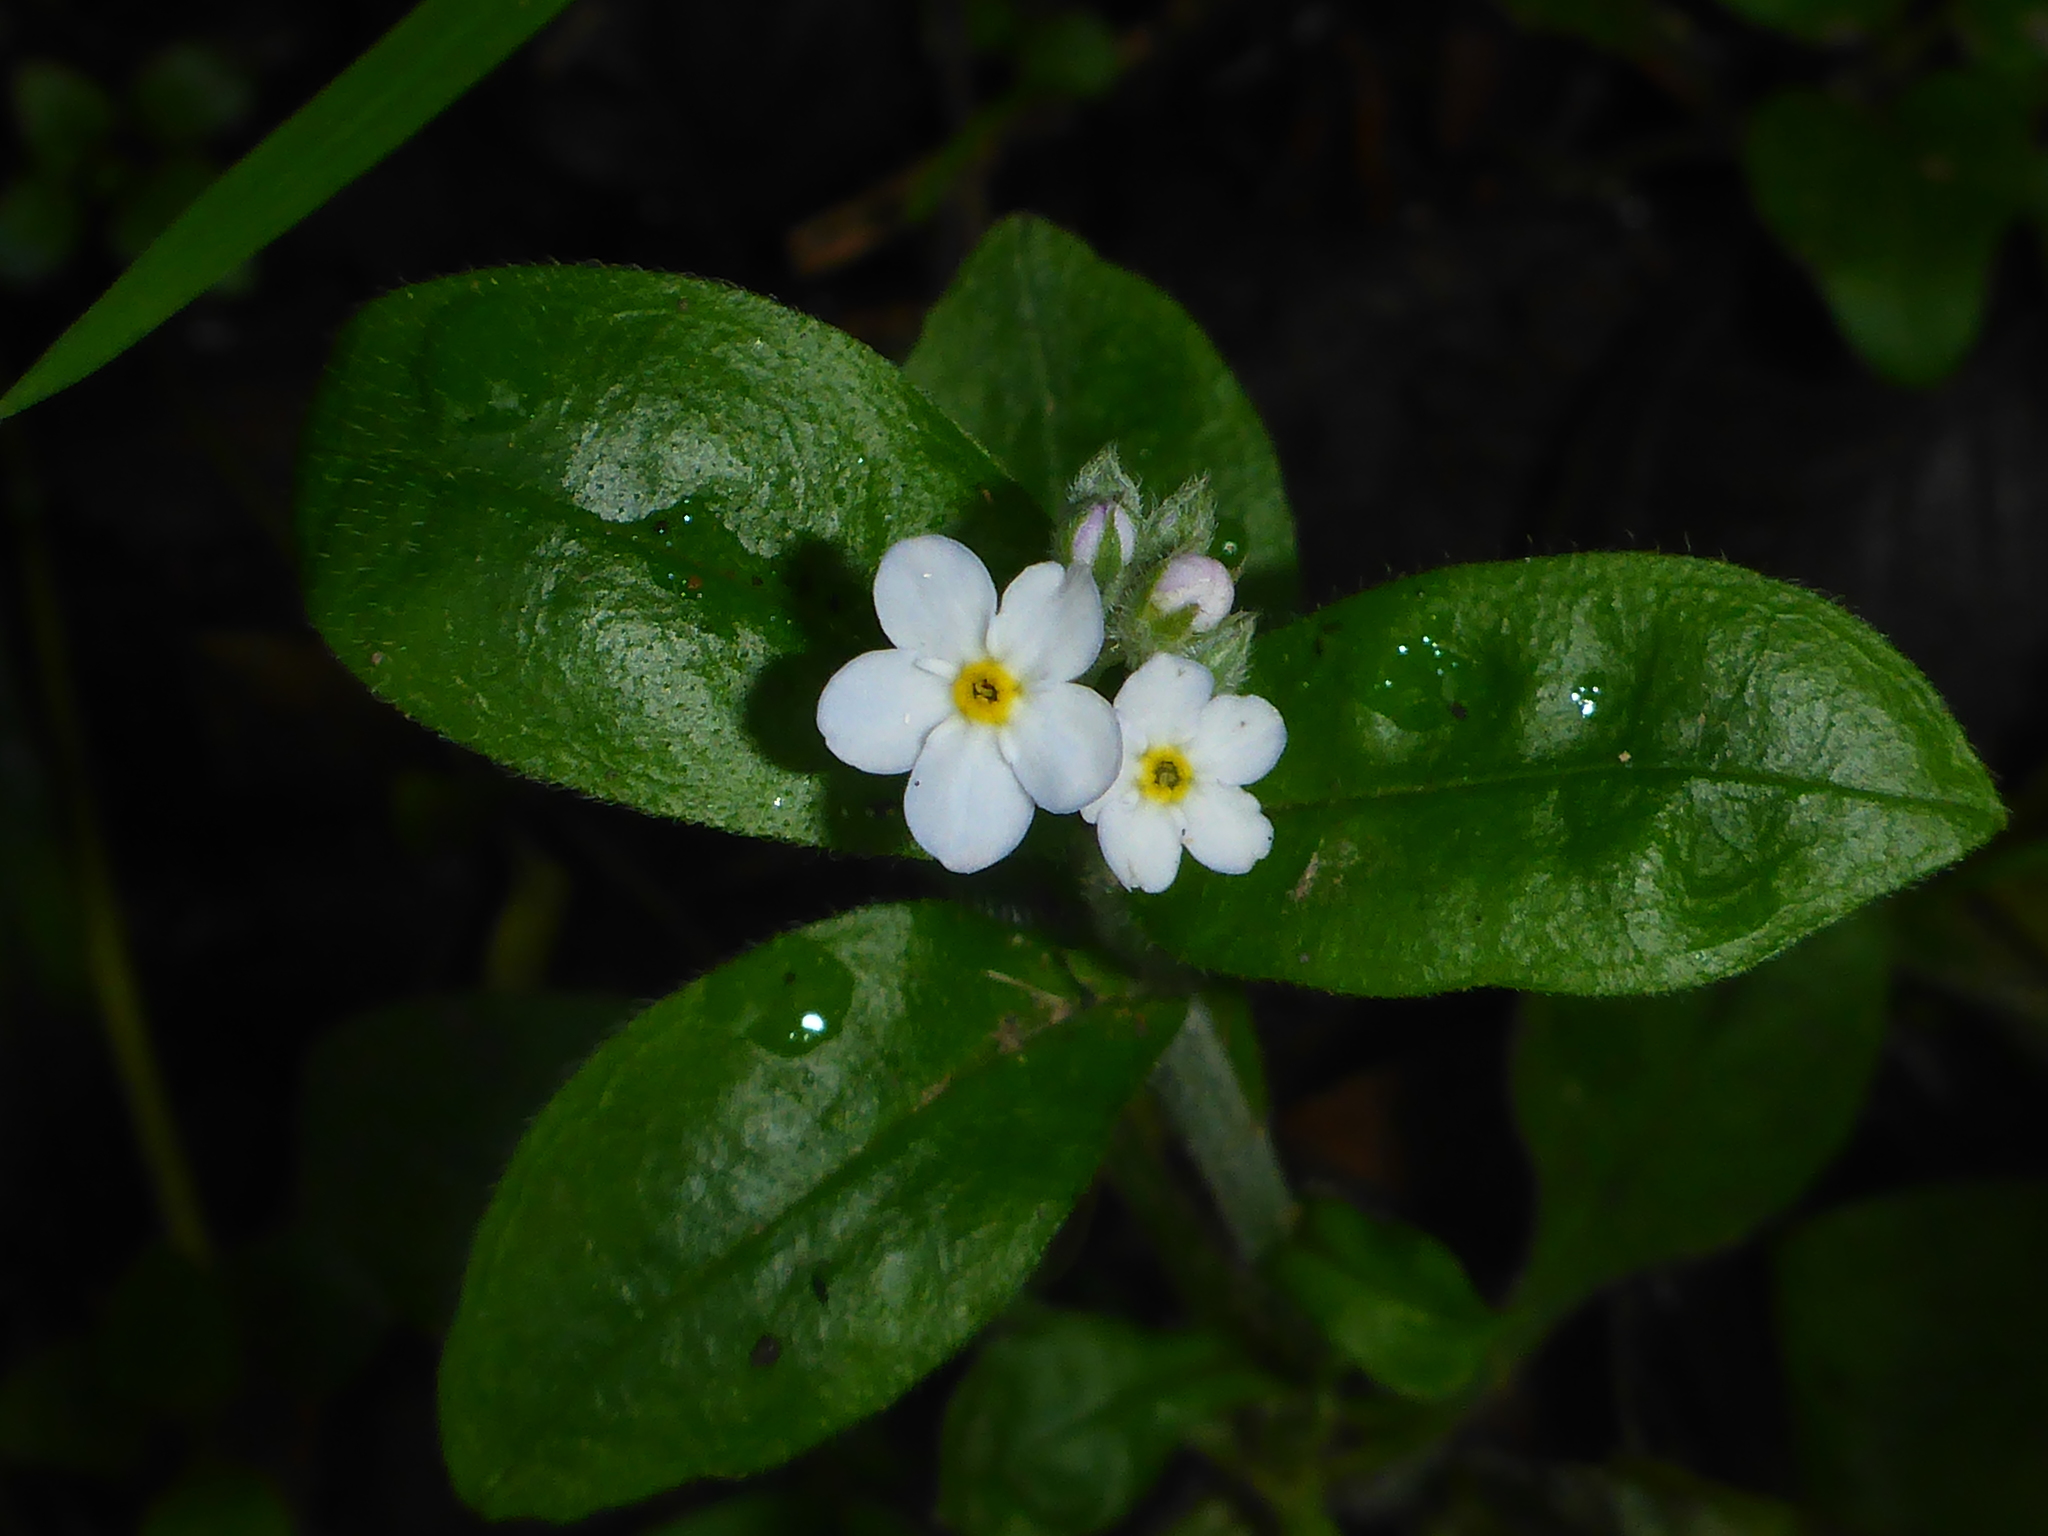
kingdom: Plantae
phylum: Tracheophyta
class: Magnoliopsida
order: Boraginales
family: Boraginaceae
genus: Myosotis
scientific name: Myosotis latifolia
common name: Broadleaf forget-me-not
